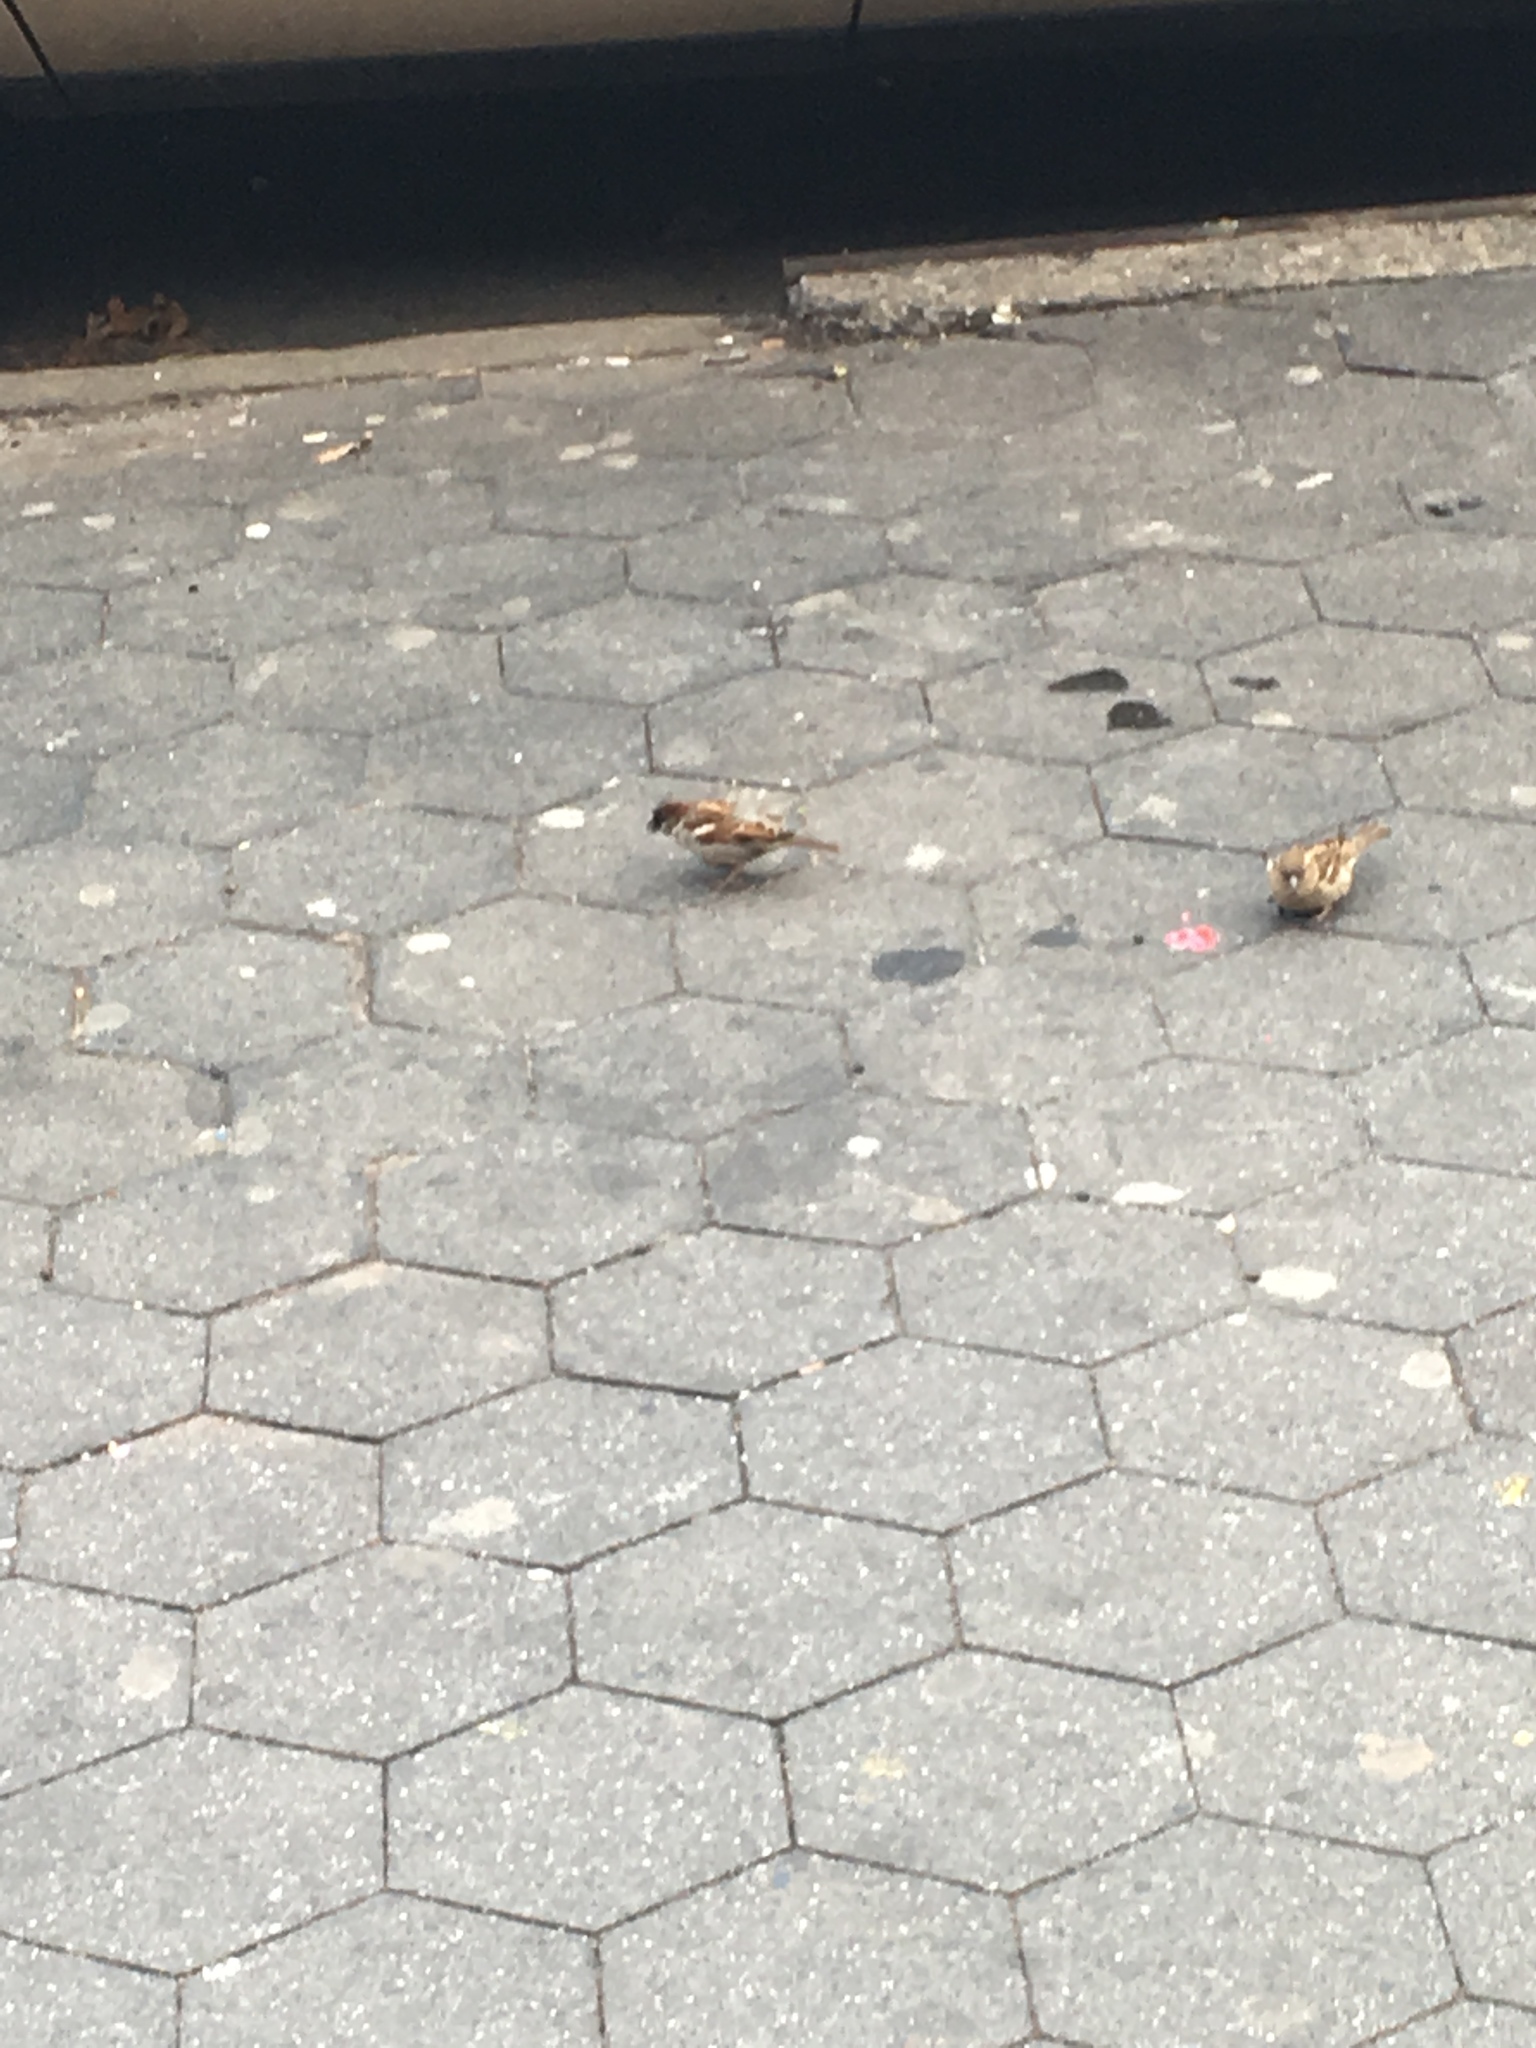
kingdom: Animalia
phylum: Chordata
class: Aves
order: Passeriformes
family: Passeridae
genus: Passer
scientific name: Passer domesticus
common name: House sparrow
